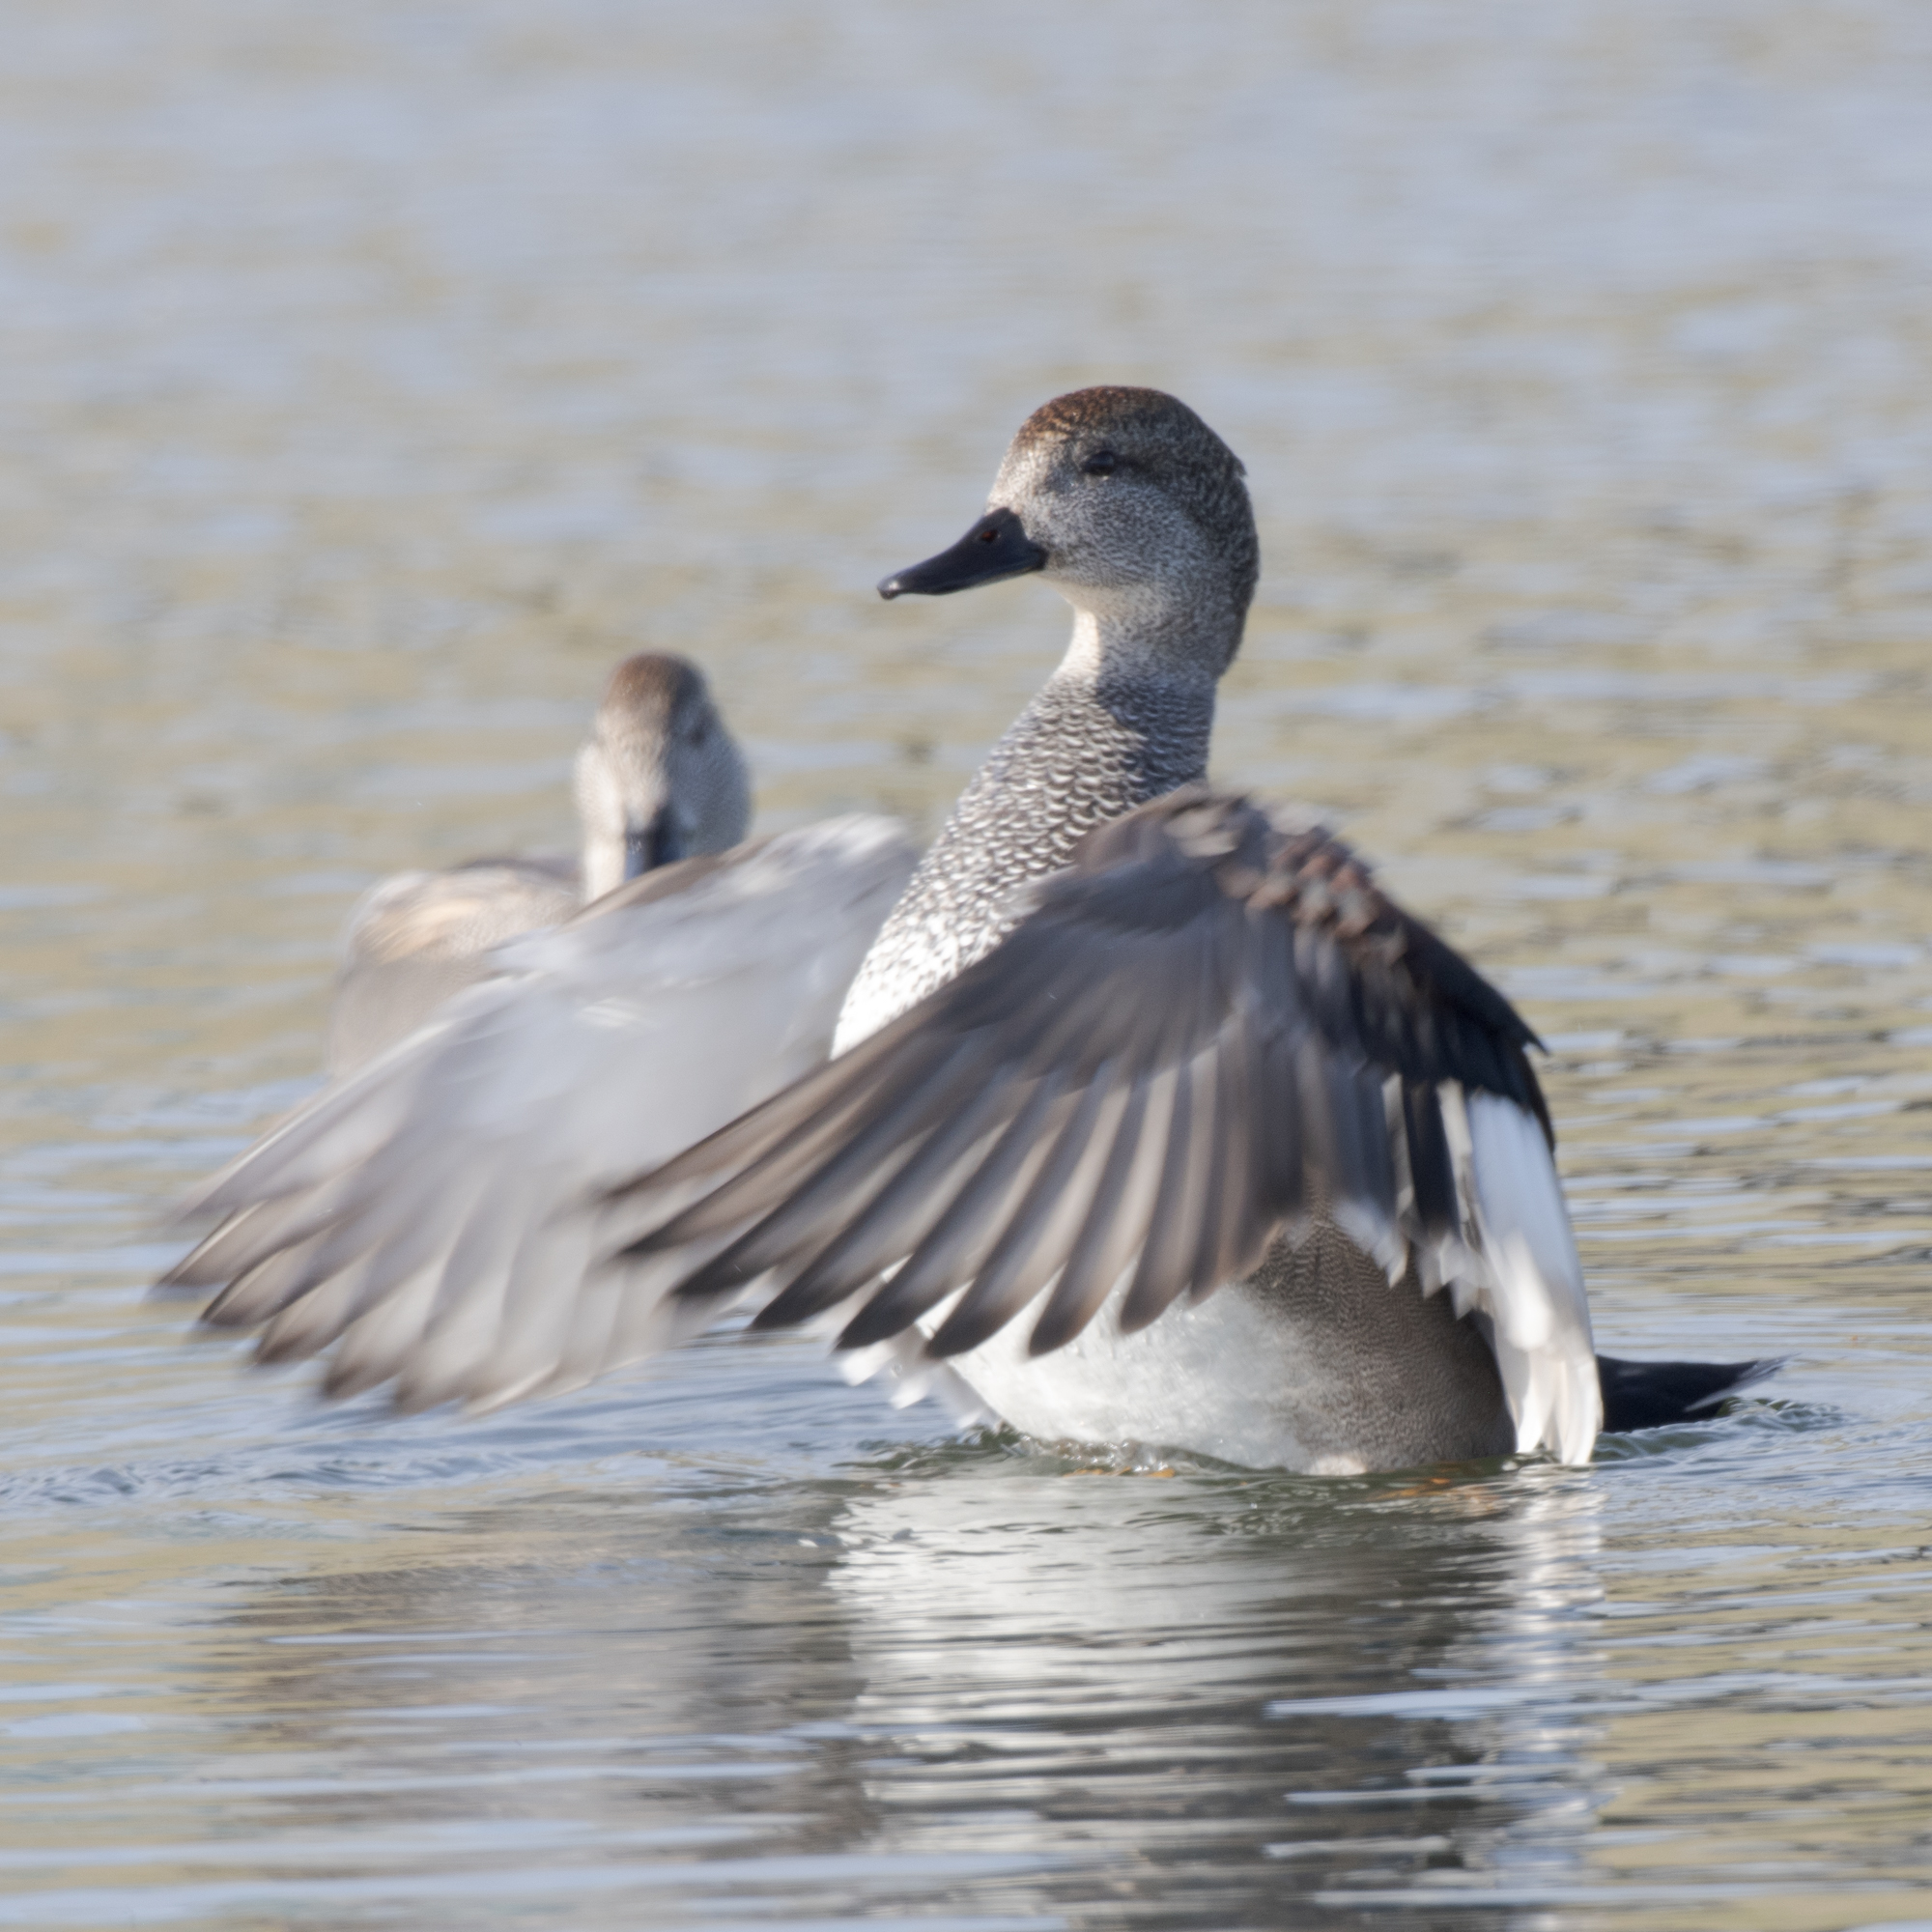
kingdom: Animalia
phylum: Chordata
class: Aves
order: Anseriformes
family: Anatidae
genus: Mareca
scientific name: Mareca strepera
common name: Gadwall
